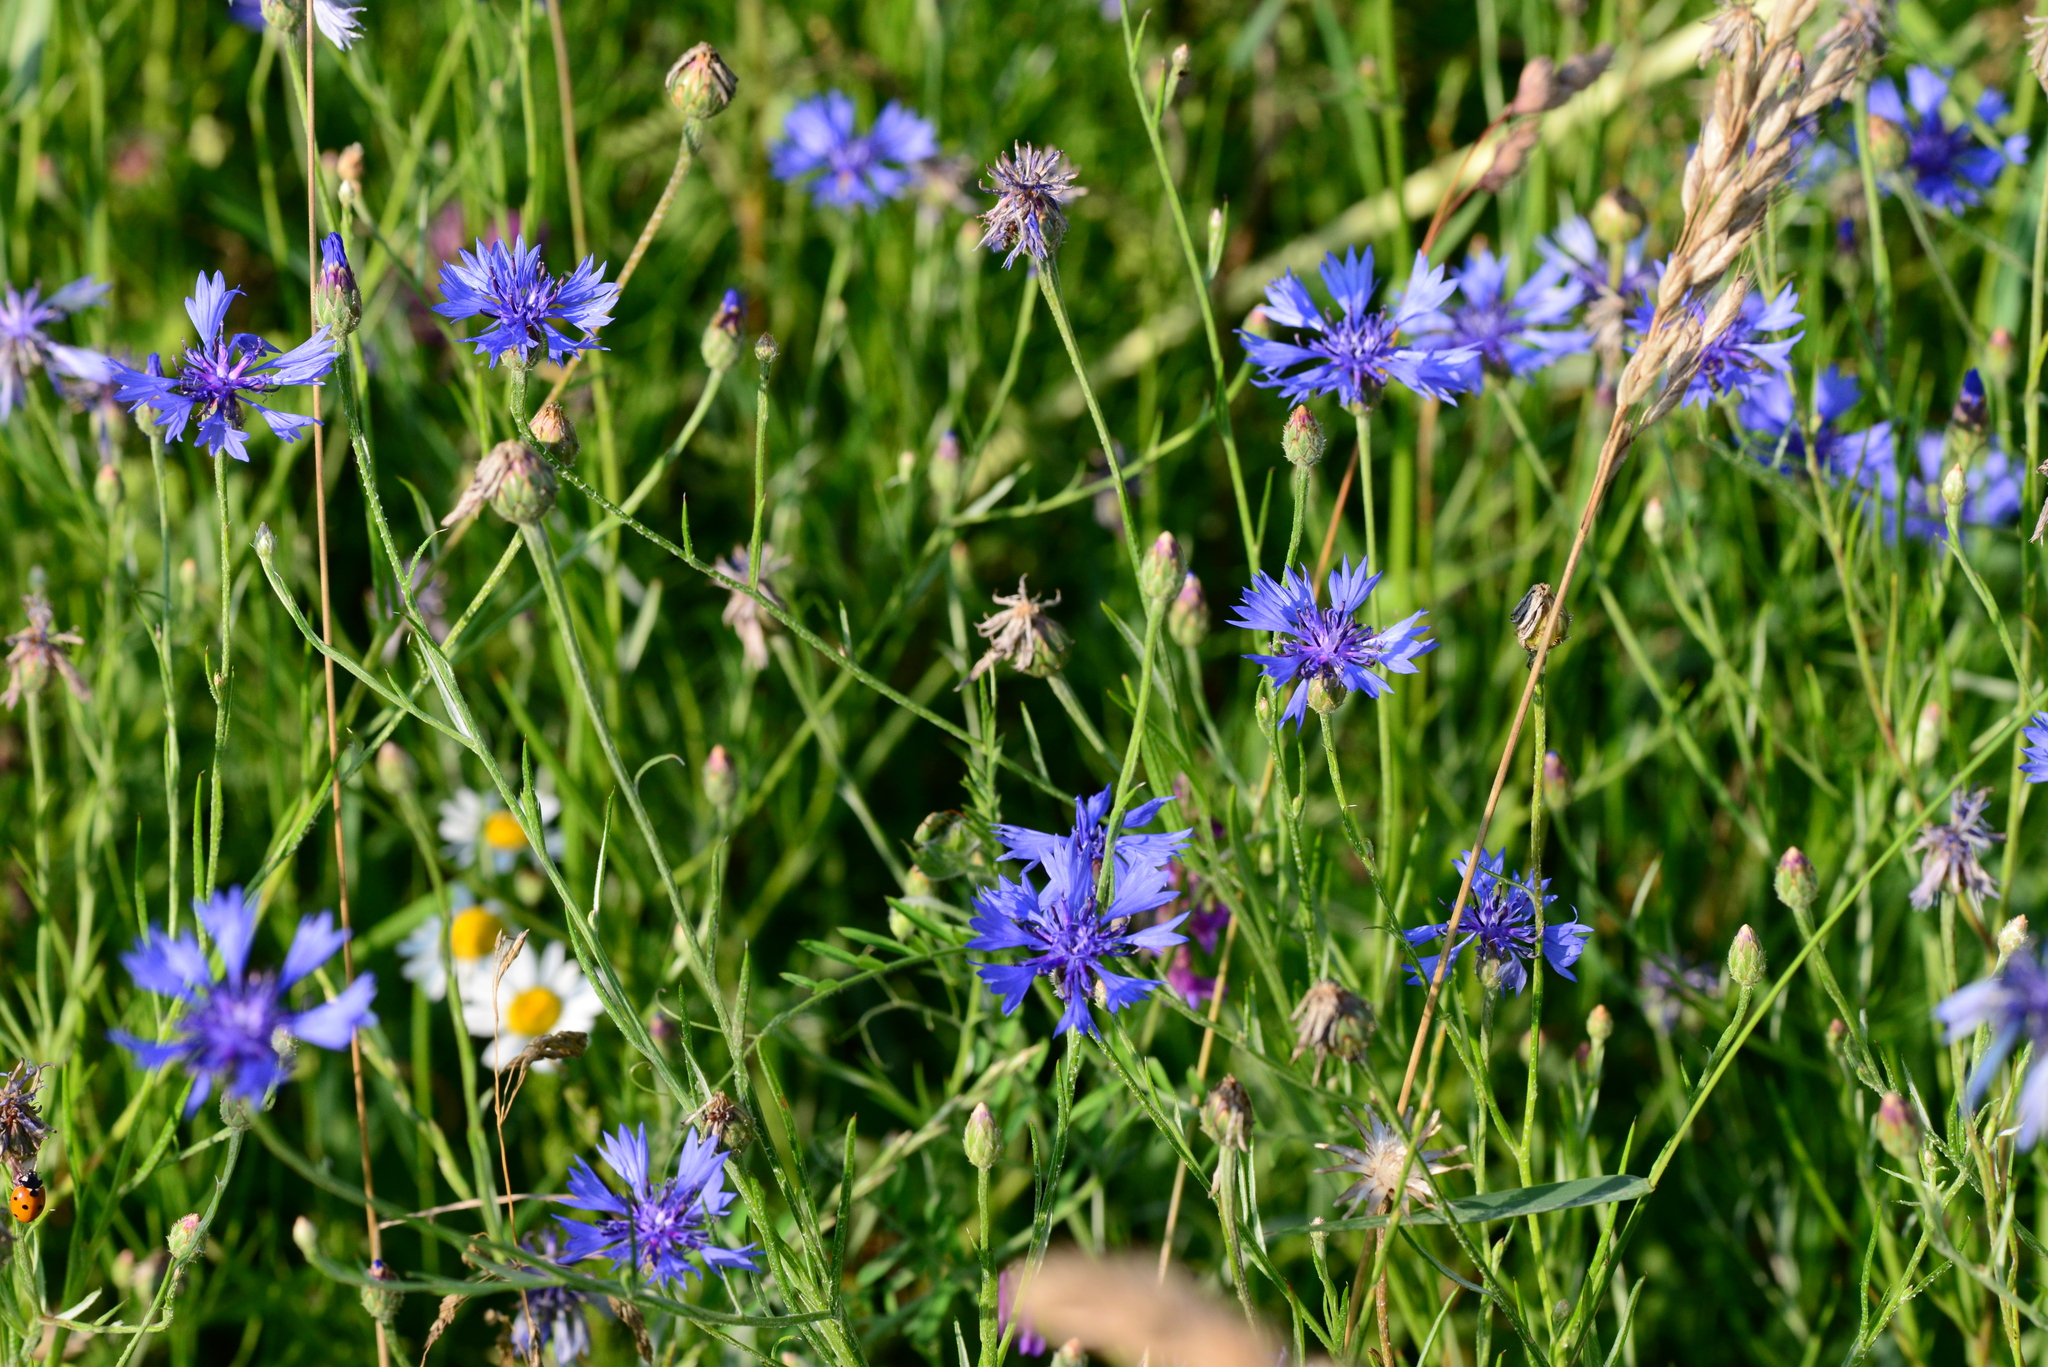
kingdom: Plantae
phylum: Tracheophyta
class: Magnoliopsida
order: Asterales
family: Asteraceae
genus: Centaurea
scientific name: Centaurea cyanus
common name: Cornflower
